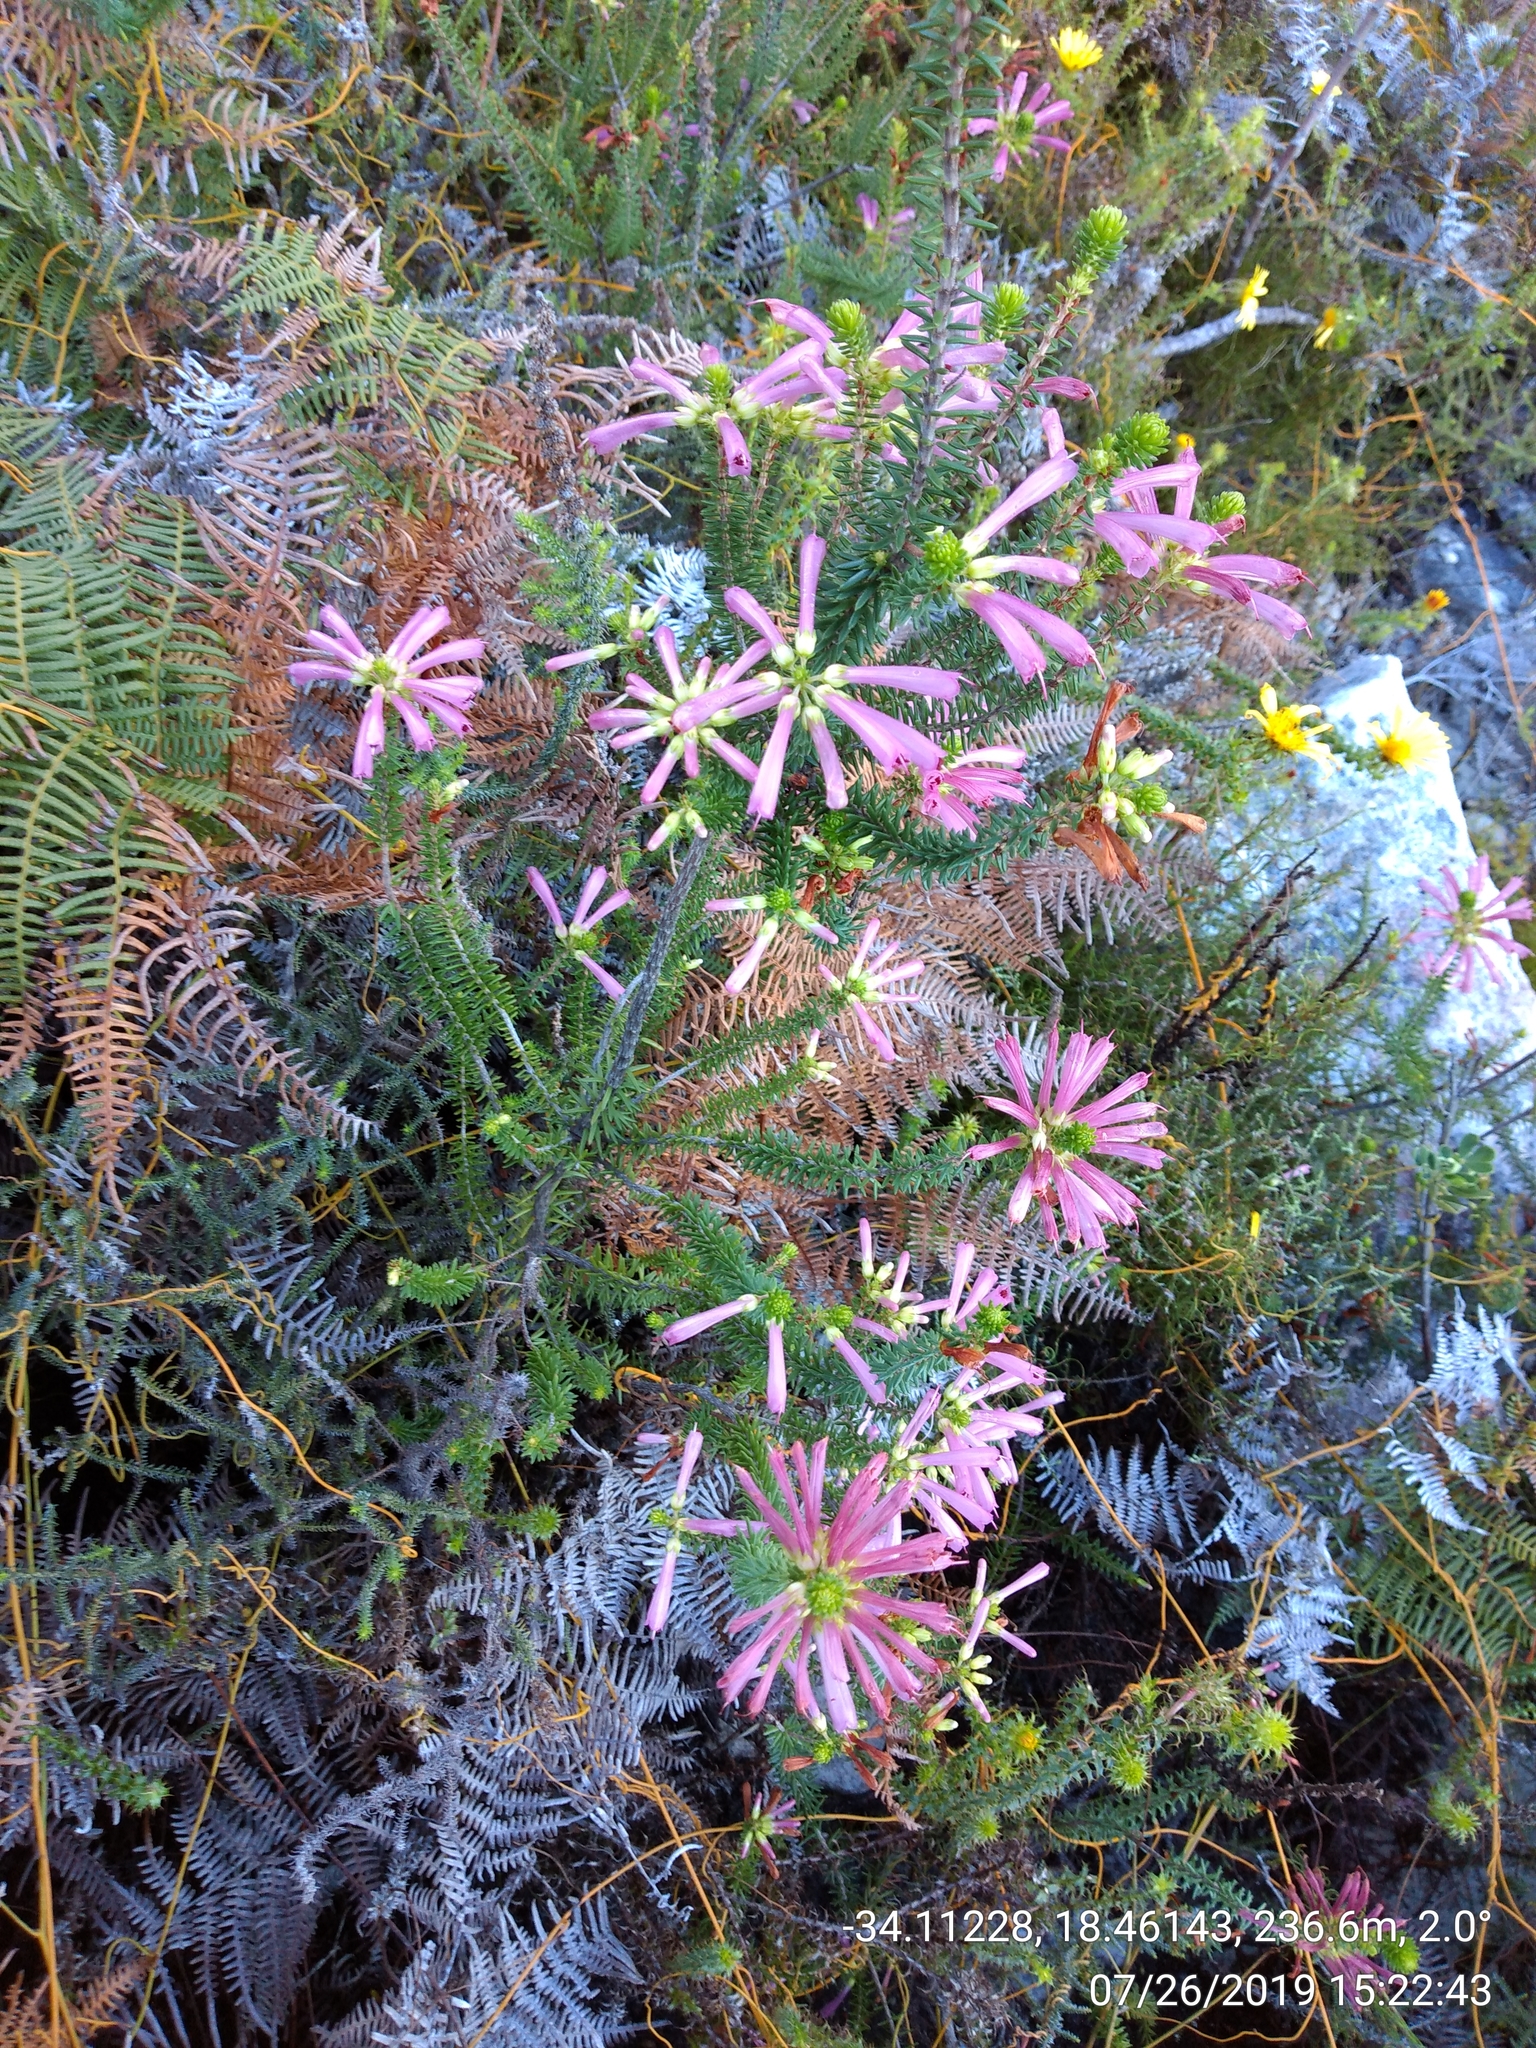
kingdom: Plantae
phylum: Tracheophyta
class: Magnoliopsida
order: Ericales
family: Ericaceae
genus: Erica
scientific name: Erica abietina
